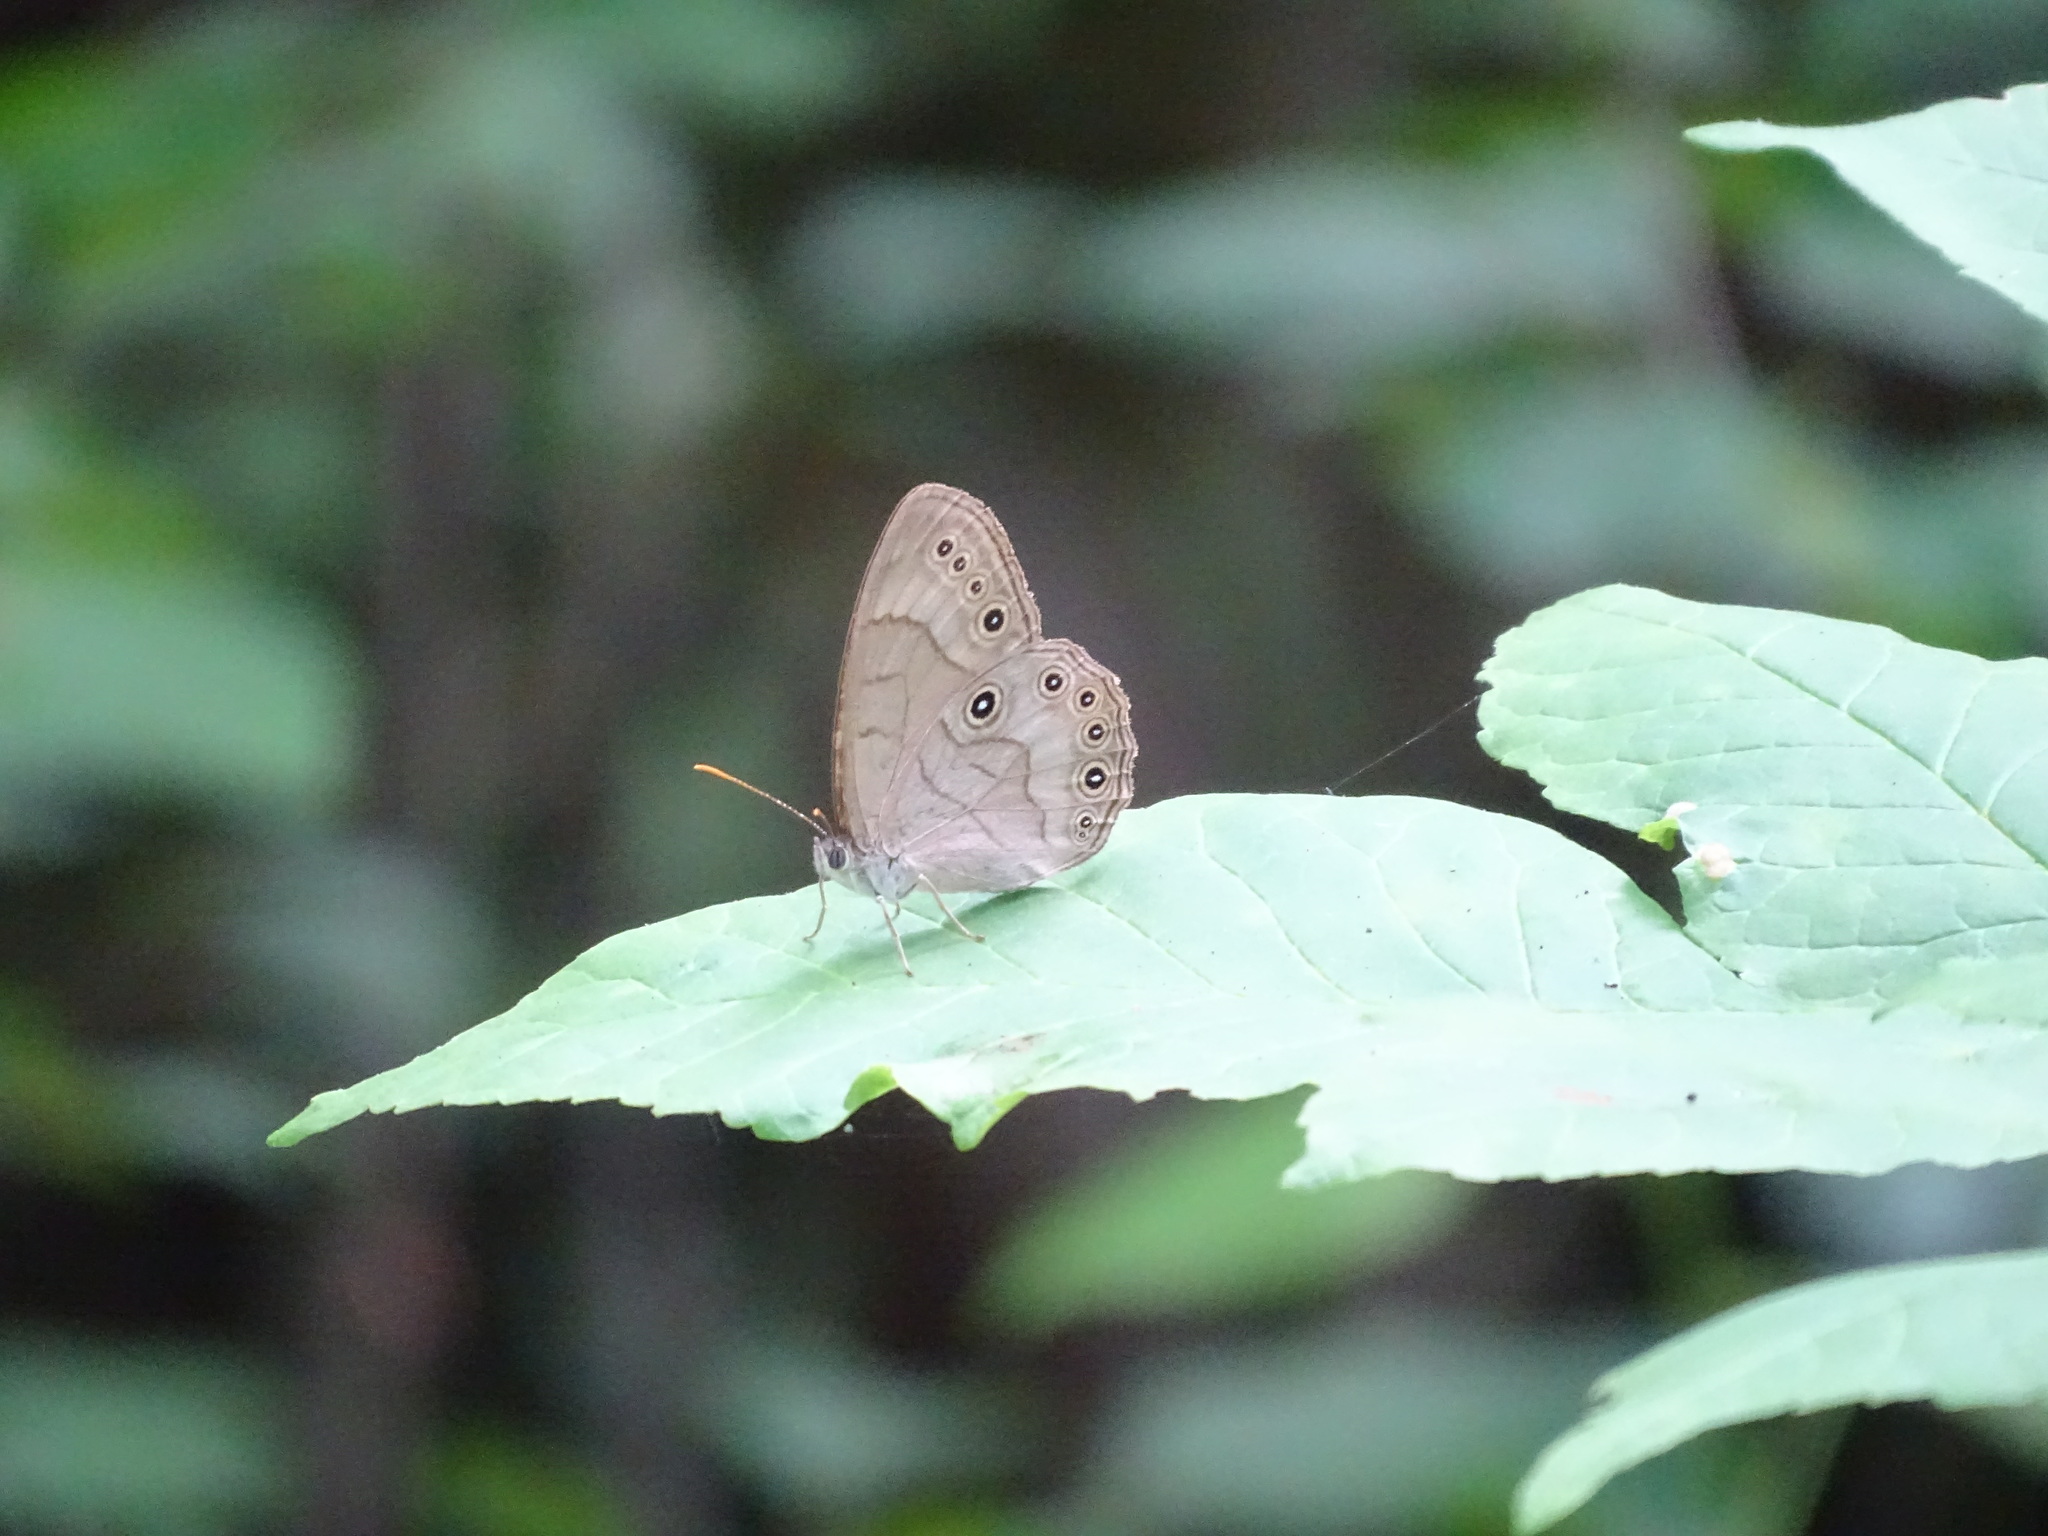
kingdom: Animalia
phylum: Arthropoda
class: Insecta
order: Lepidoptera
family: Nymphalidae
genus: Lethe
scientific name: Lethe eurydice
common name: Eyed brown
